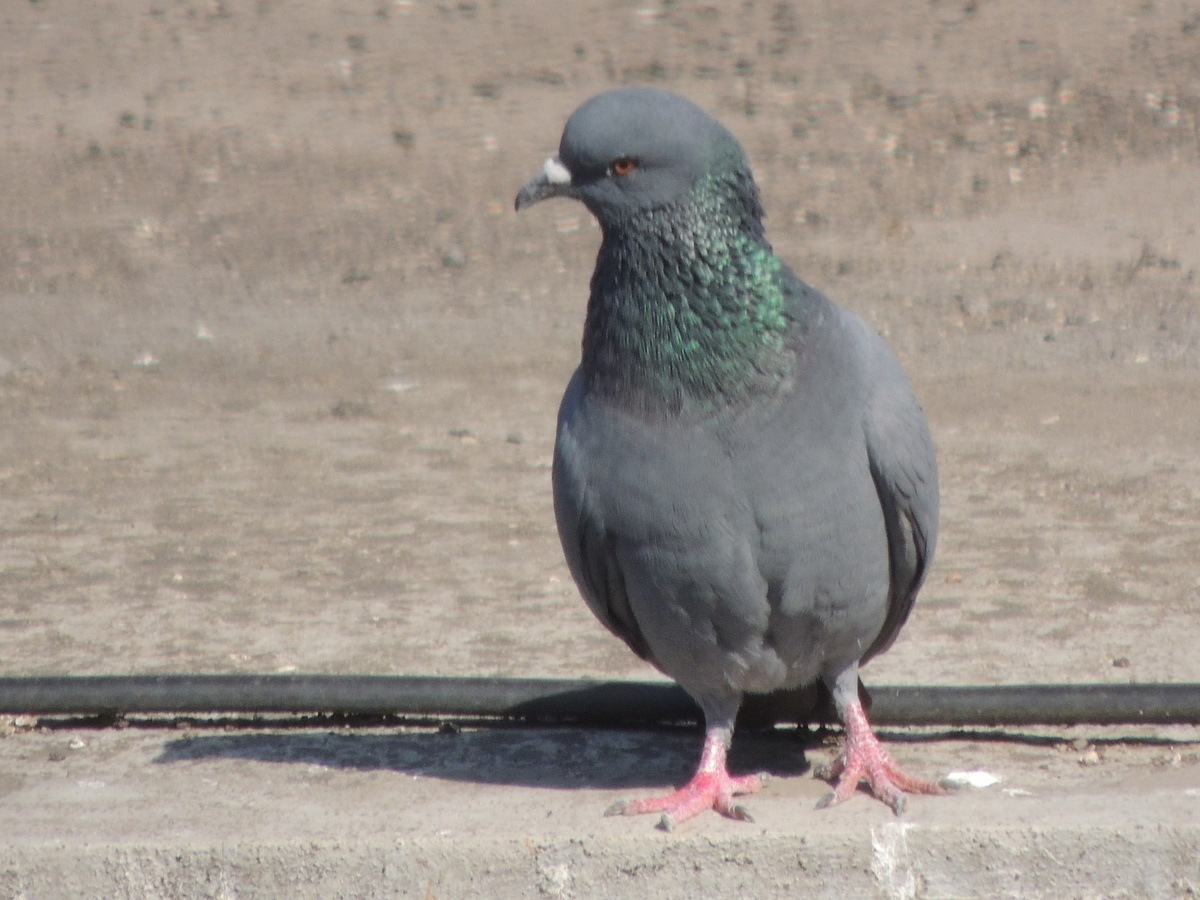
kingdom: Animalia
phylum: Chordata
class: Aves
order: Columbiformes
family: Columbidae
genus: Columba
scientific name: Columba livia
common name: Rock pigeon
